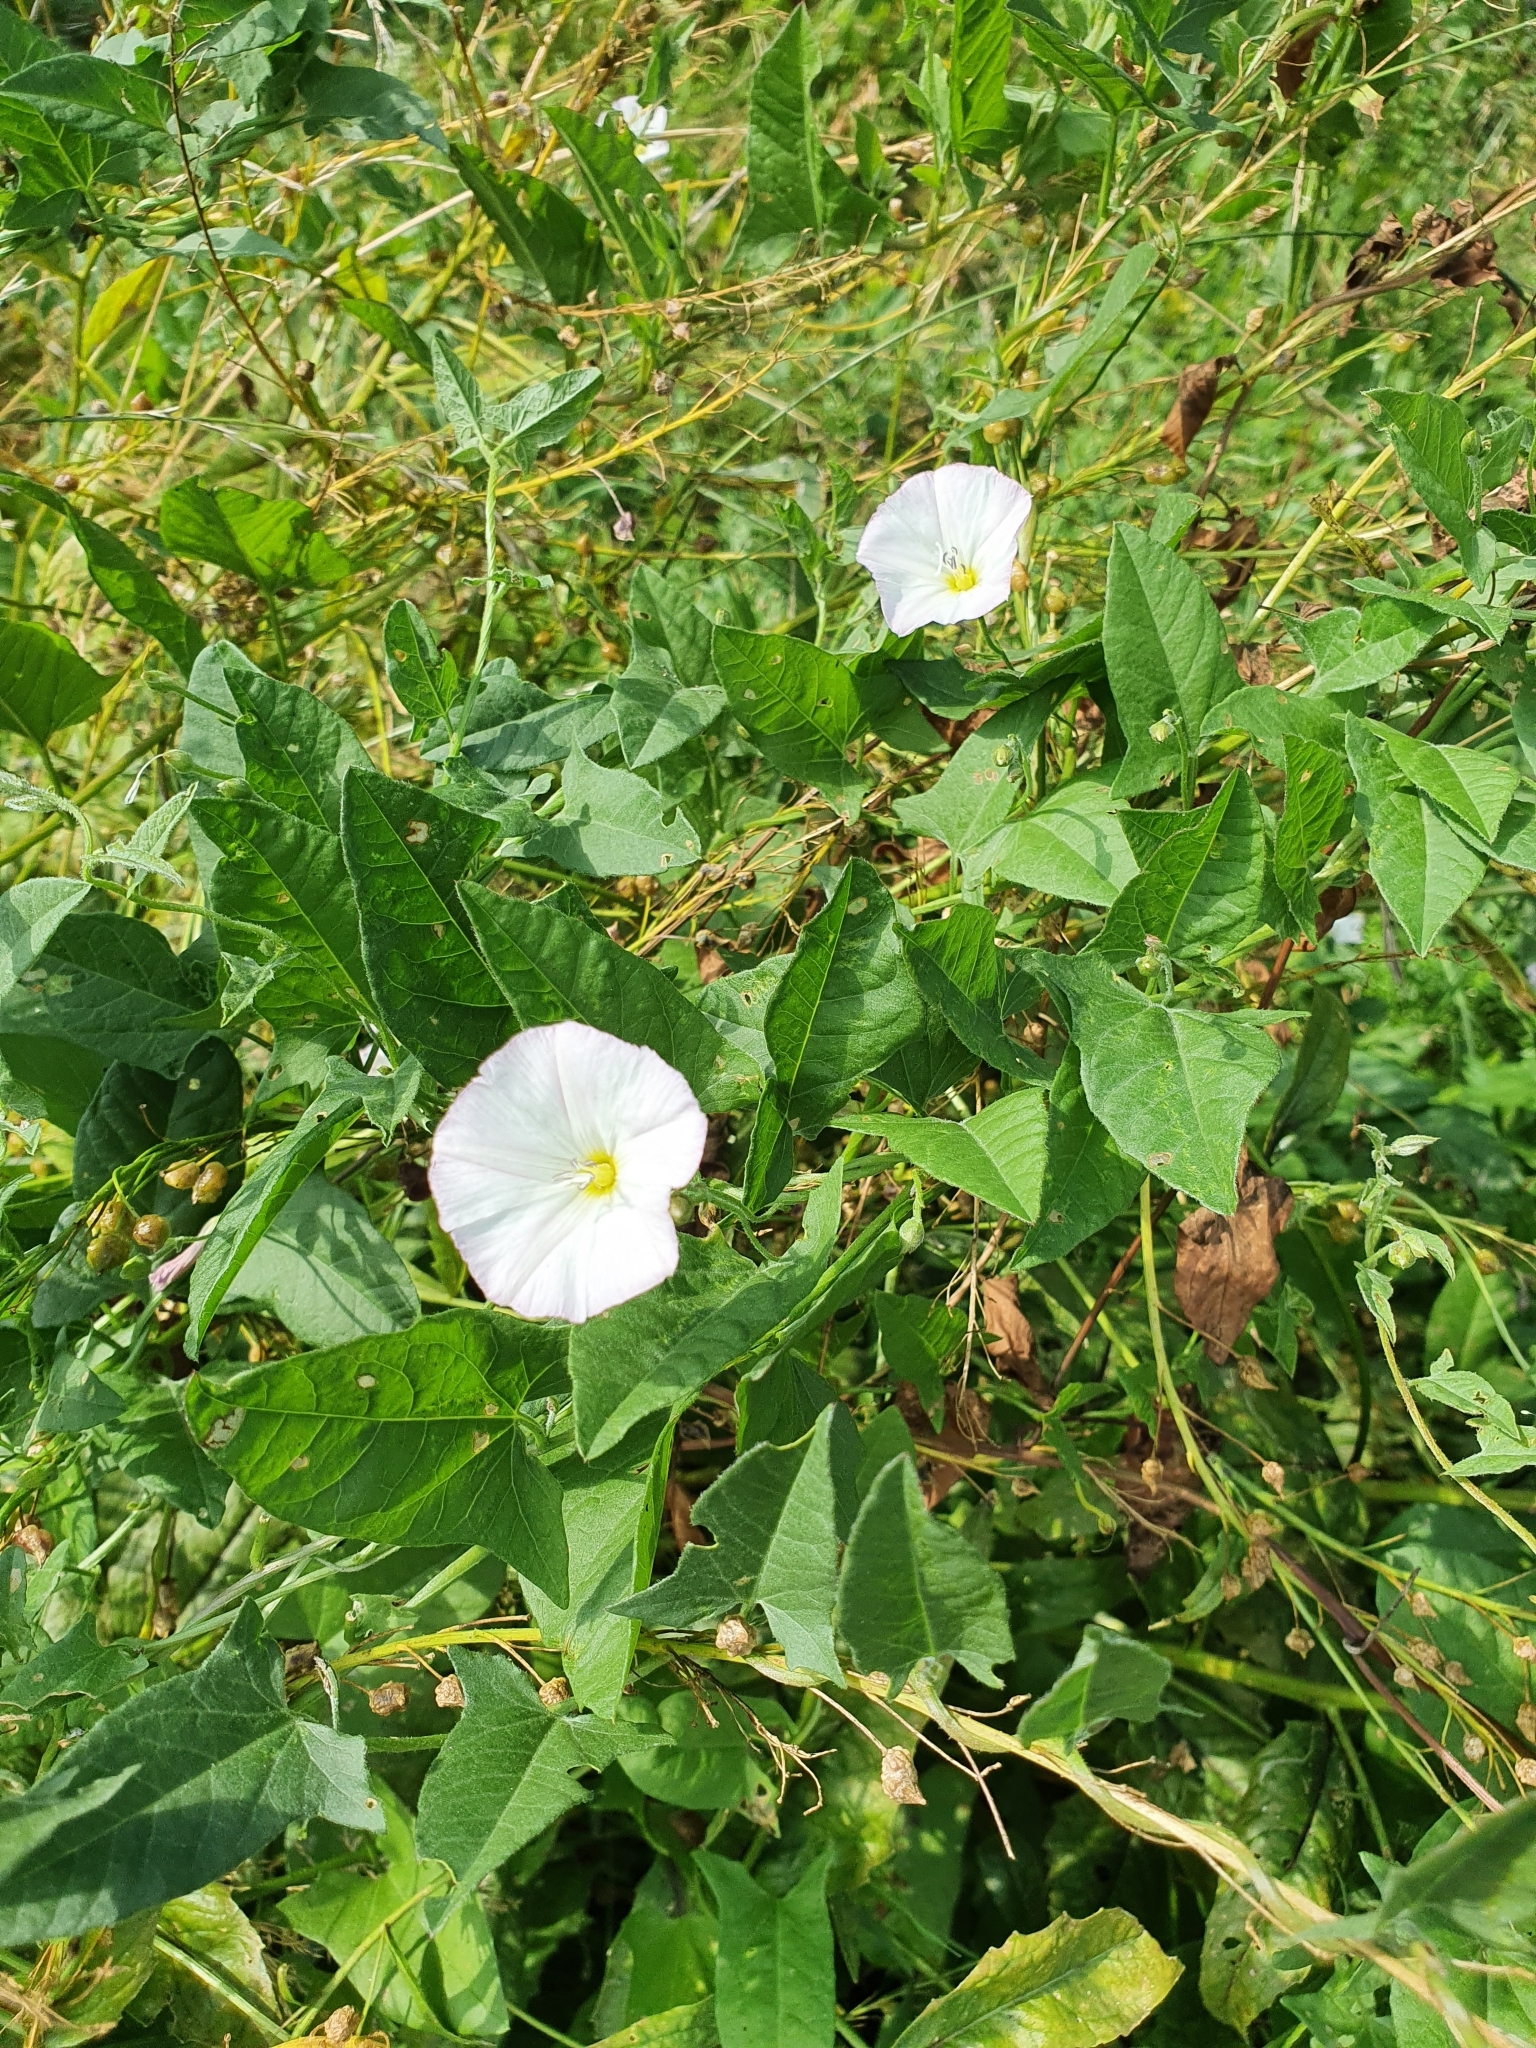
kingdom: Plantae
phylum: Tracheophyta
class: Magnoliopsida
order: Solanales
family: Convolvulaceae
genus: Convolvulus
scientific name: Convolvulus arvensis
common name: Field bindweed
